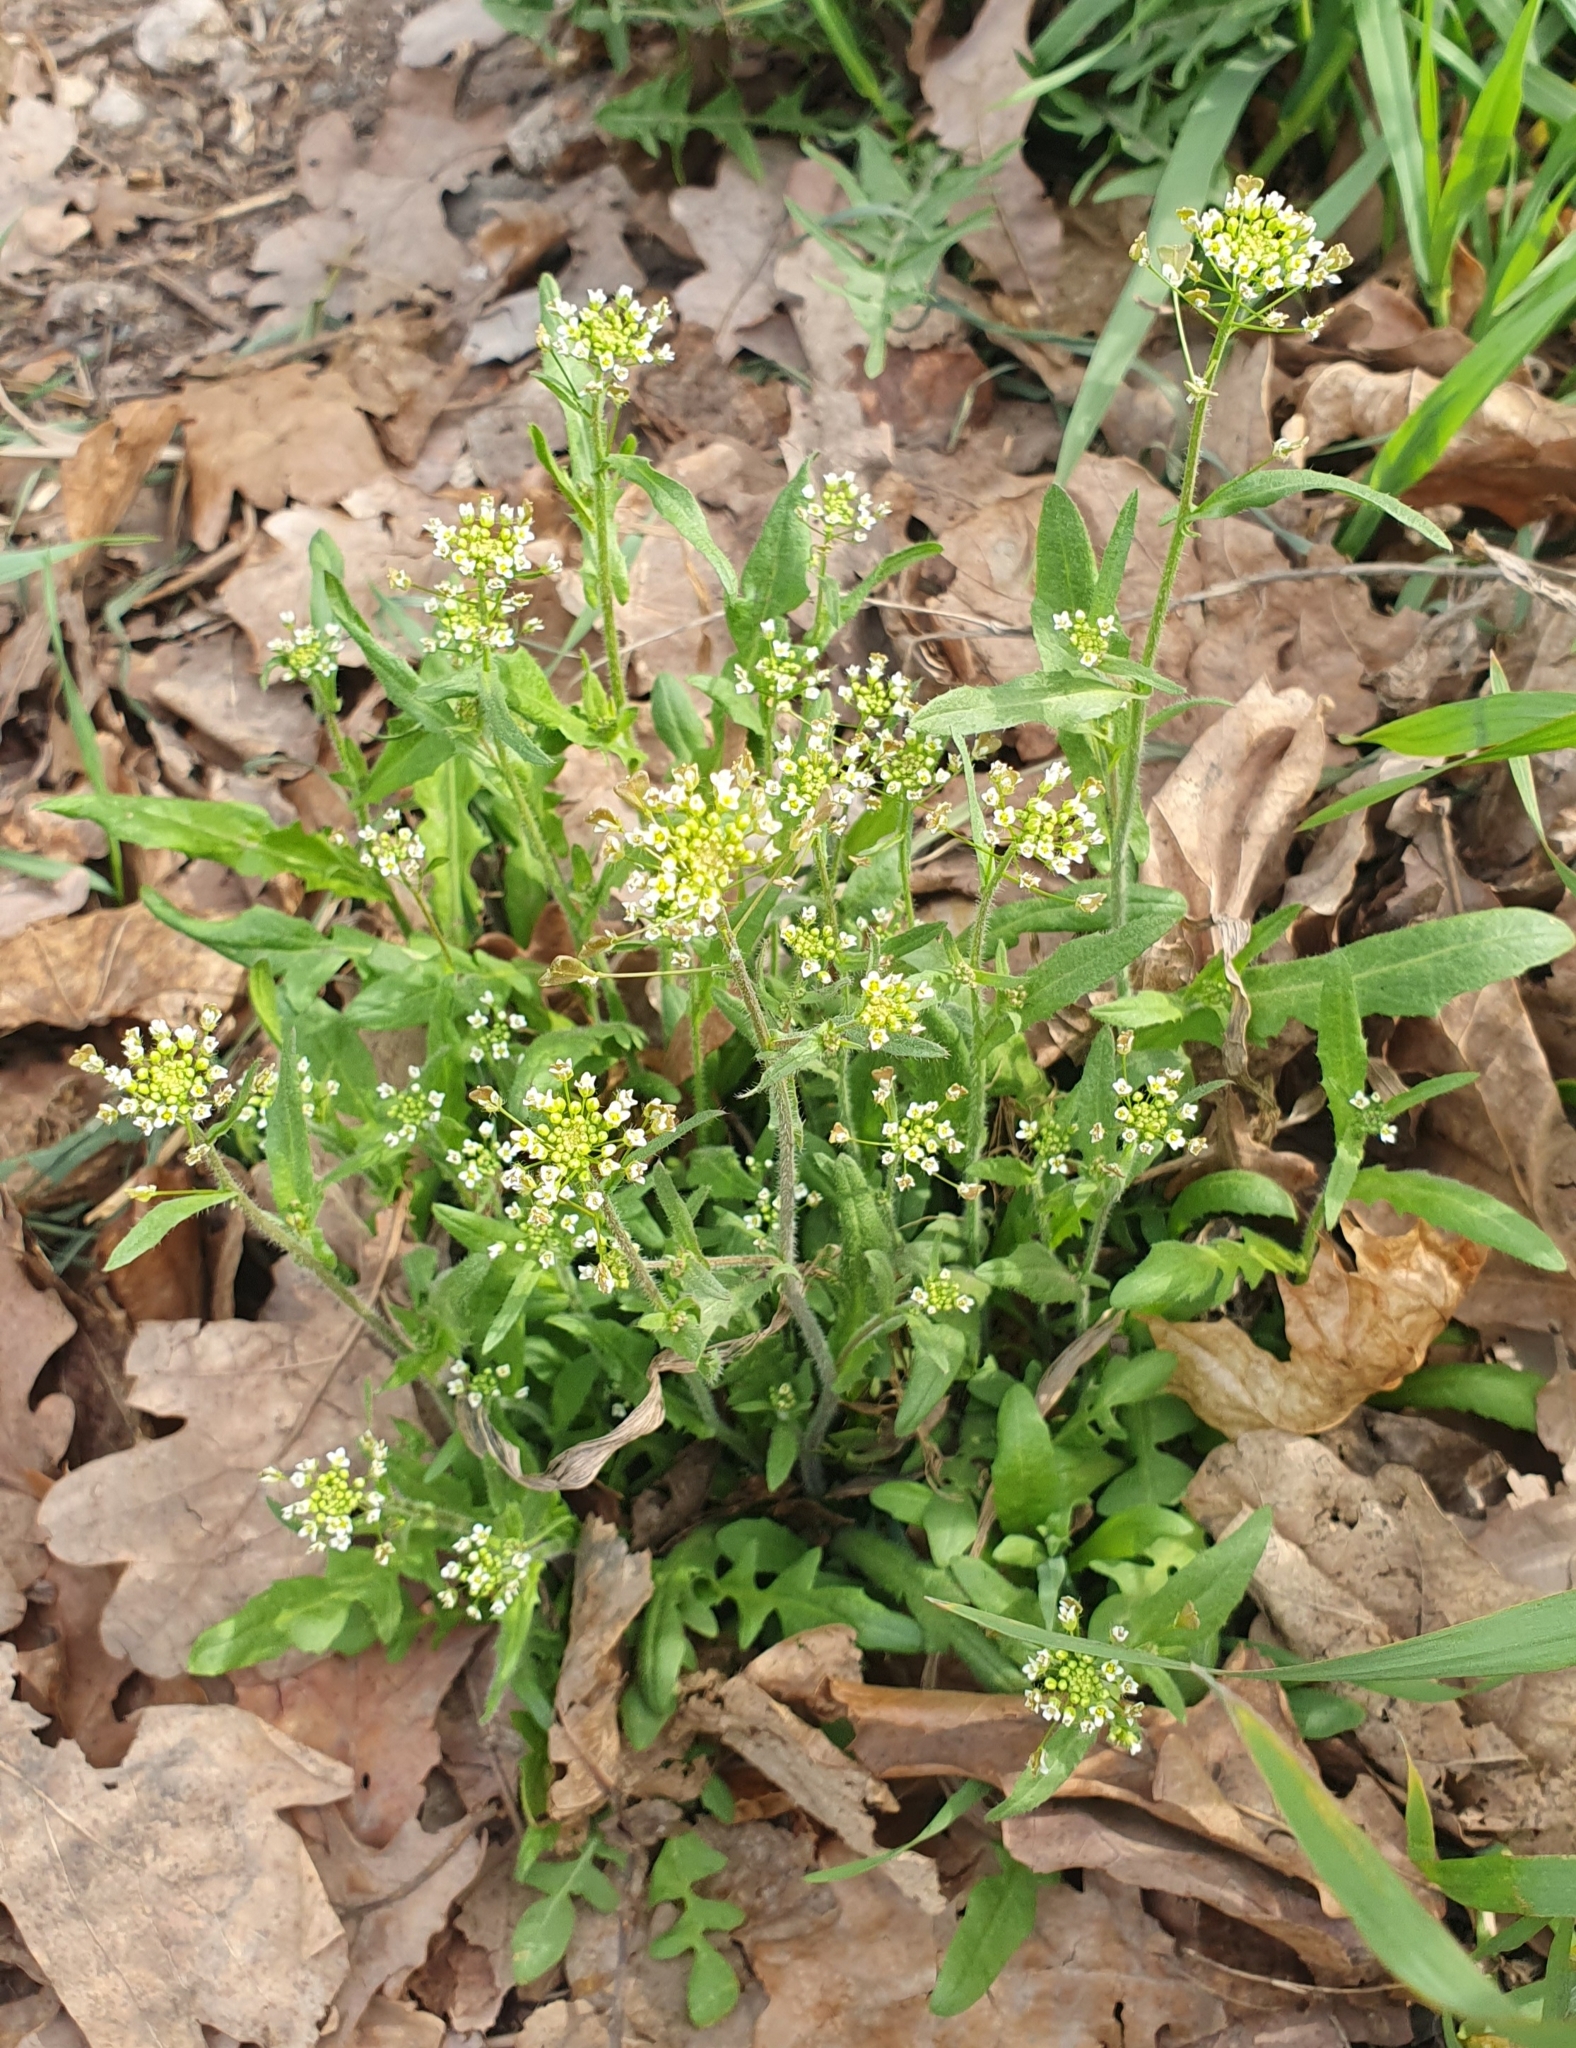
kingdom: Plantae
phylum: Tracheophyta
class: Magnoliopsida
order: Brassicales
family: Brassicaceae
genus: Capsella
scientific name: Capsella bursa-pastoris
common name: Shepherd's purse
